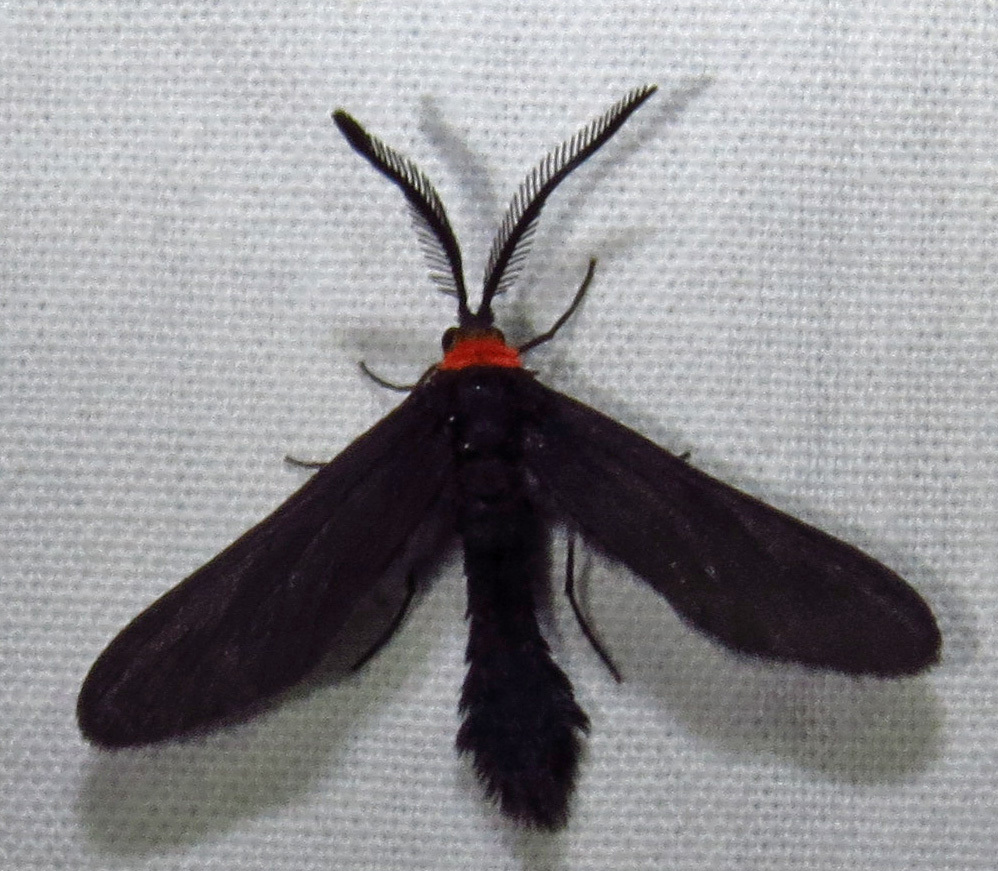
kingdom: Animalia
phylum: Arthropoda
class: Insecta
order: Lepidoptera
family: Zygaenidae
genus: Harrisina
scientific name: Harrisina americana
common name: Grapeleaf skeletonizer moth
